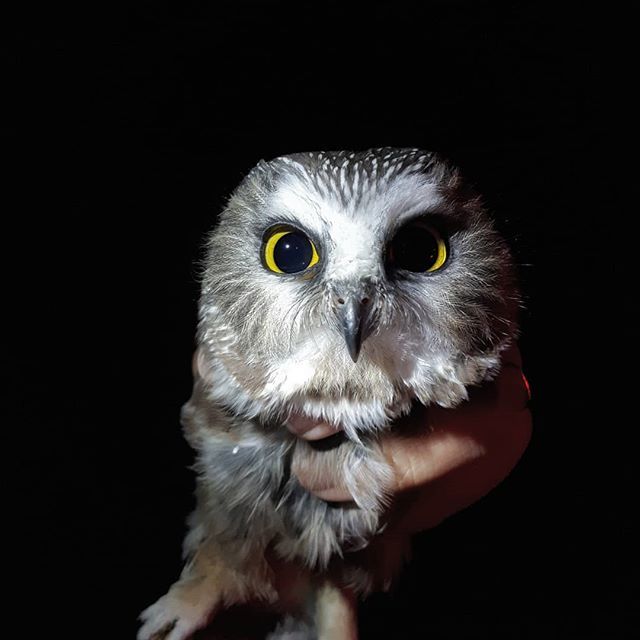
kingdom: Animalia
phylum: Chordata
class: Aves
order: Strigiformes
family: Strigidae
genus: Aegolius
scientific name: Aegolius acadicus
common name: Northern saw-whet owl
